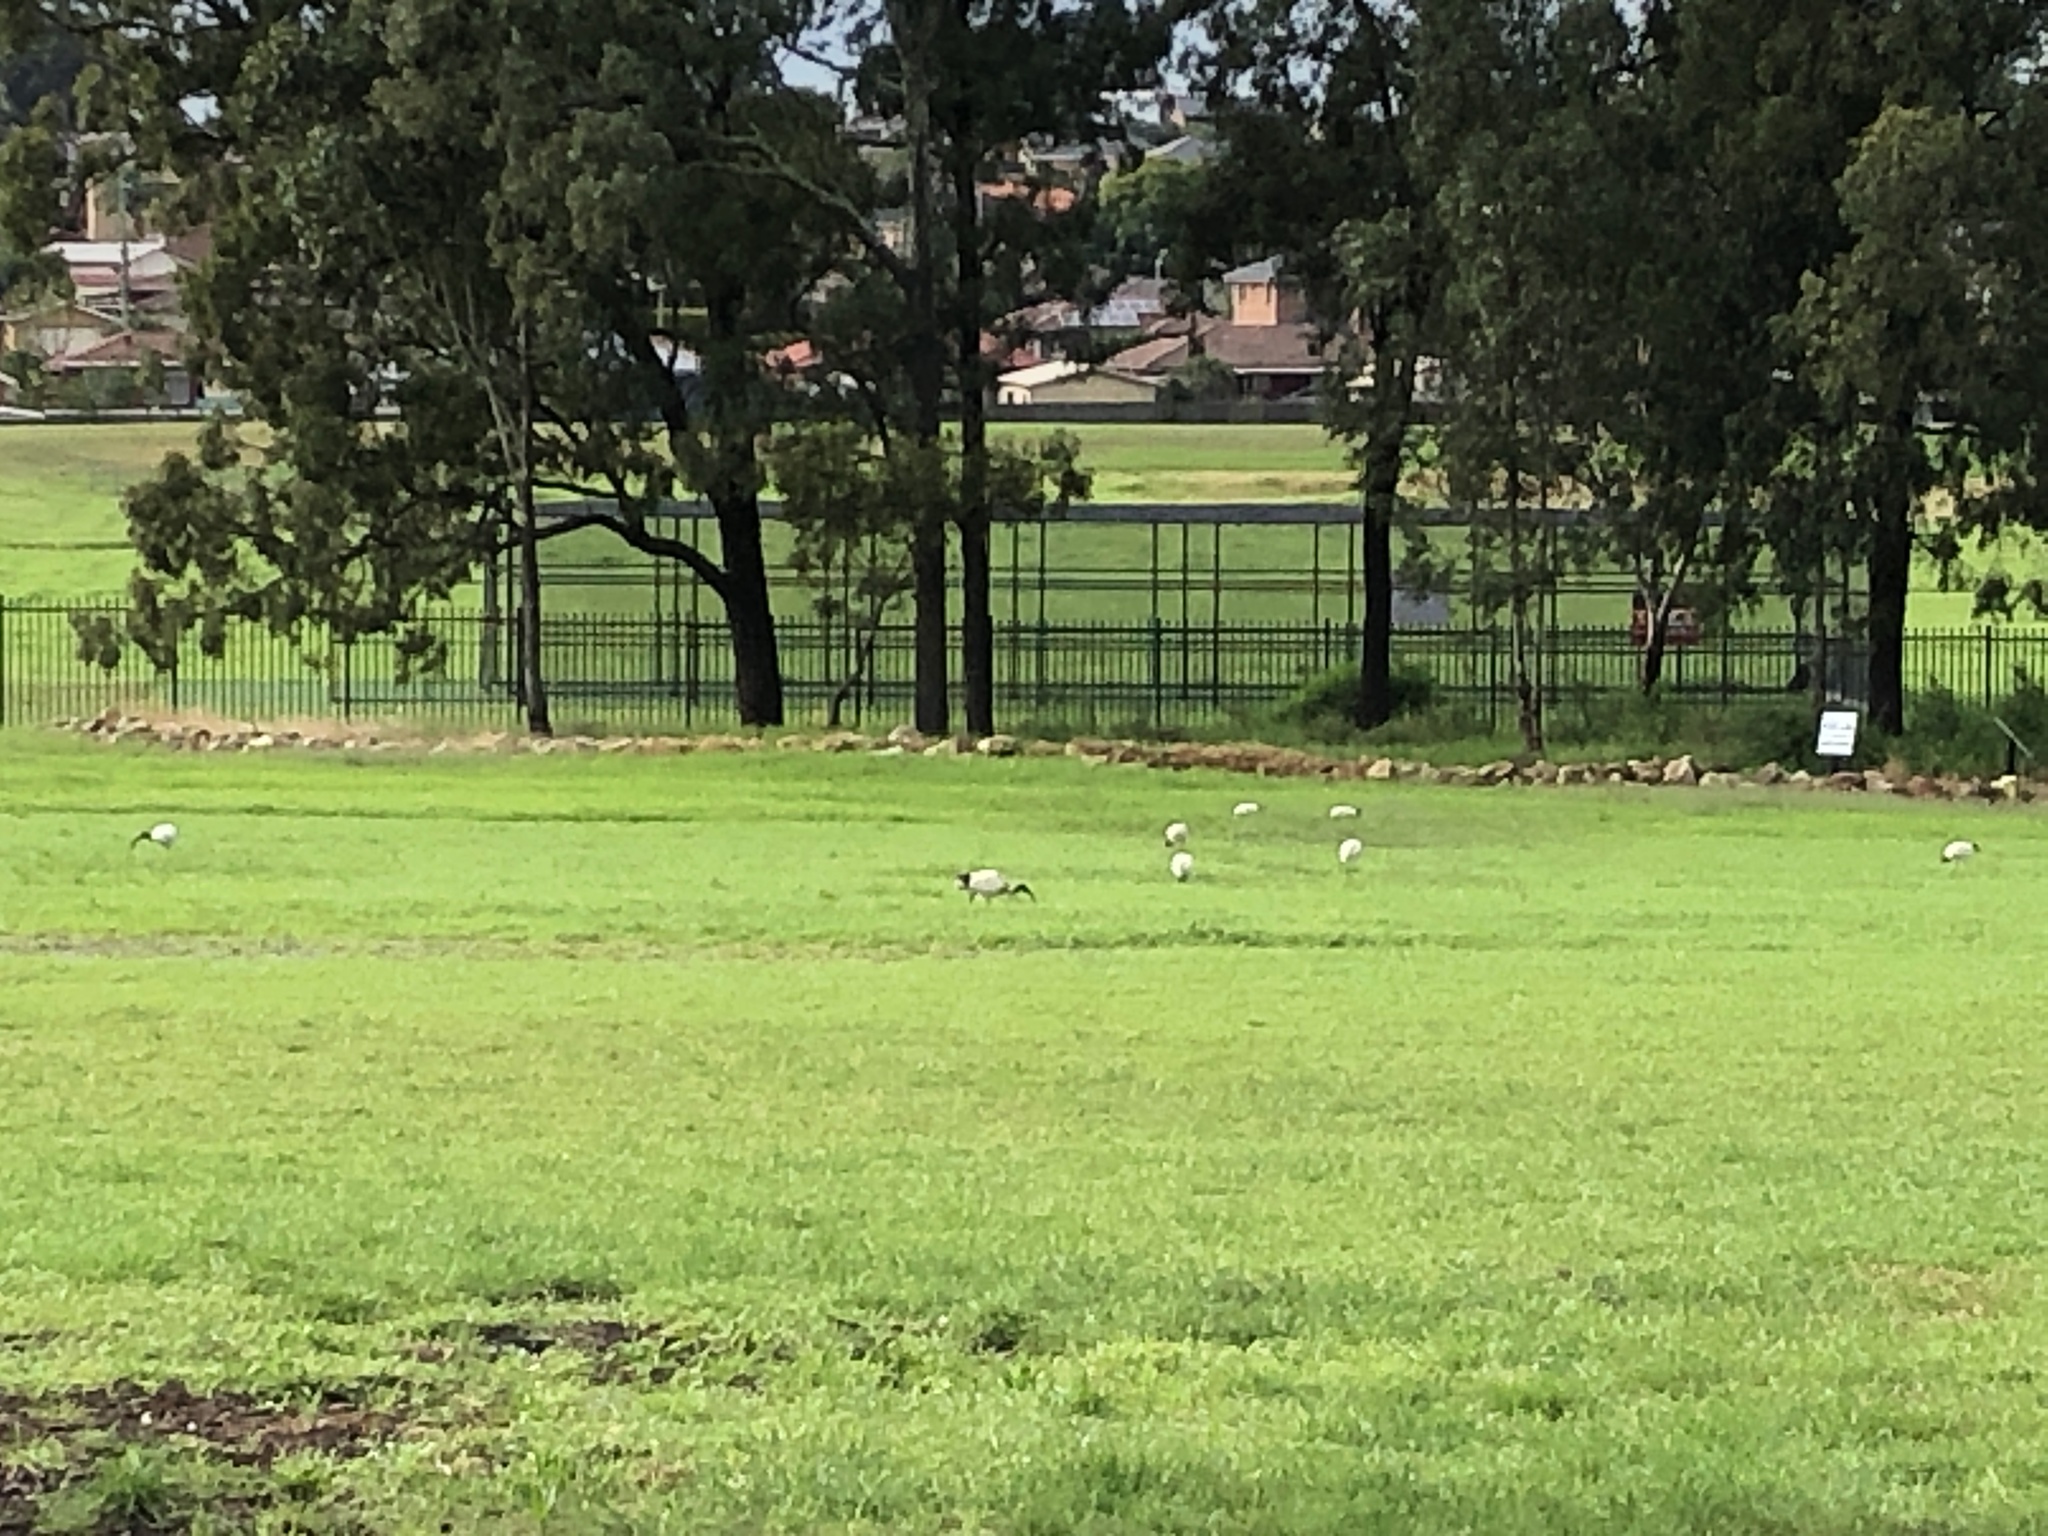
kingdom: Animalia
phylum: Chordata
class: Aves
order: Pelecaniformes
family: Threskiornithidae
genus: Threskiornis
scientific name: Threskiornis molucca
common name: Australian white ibis
